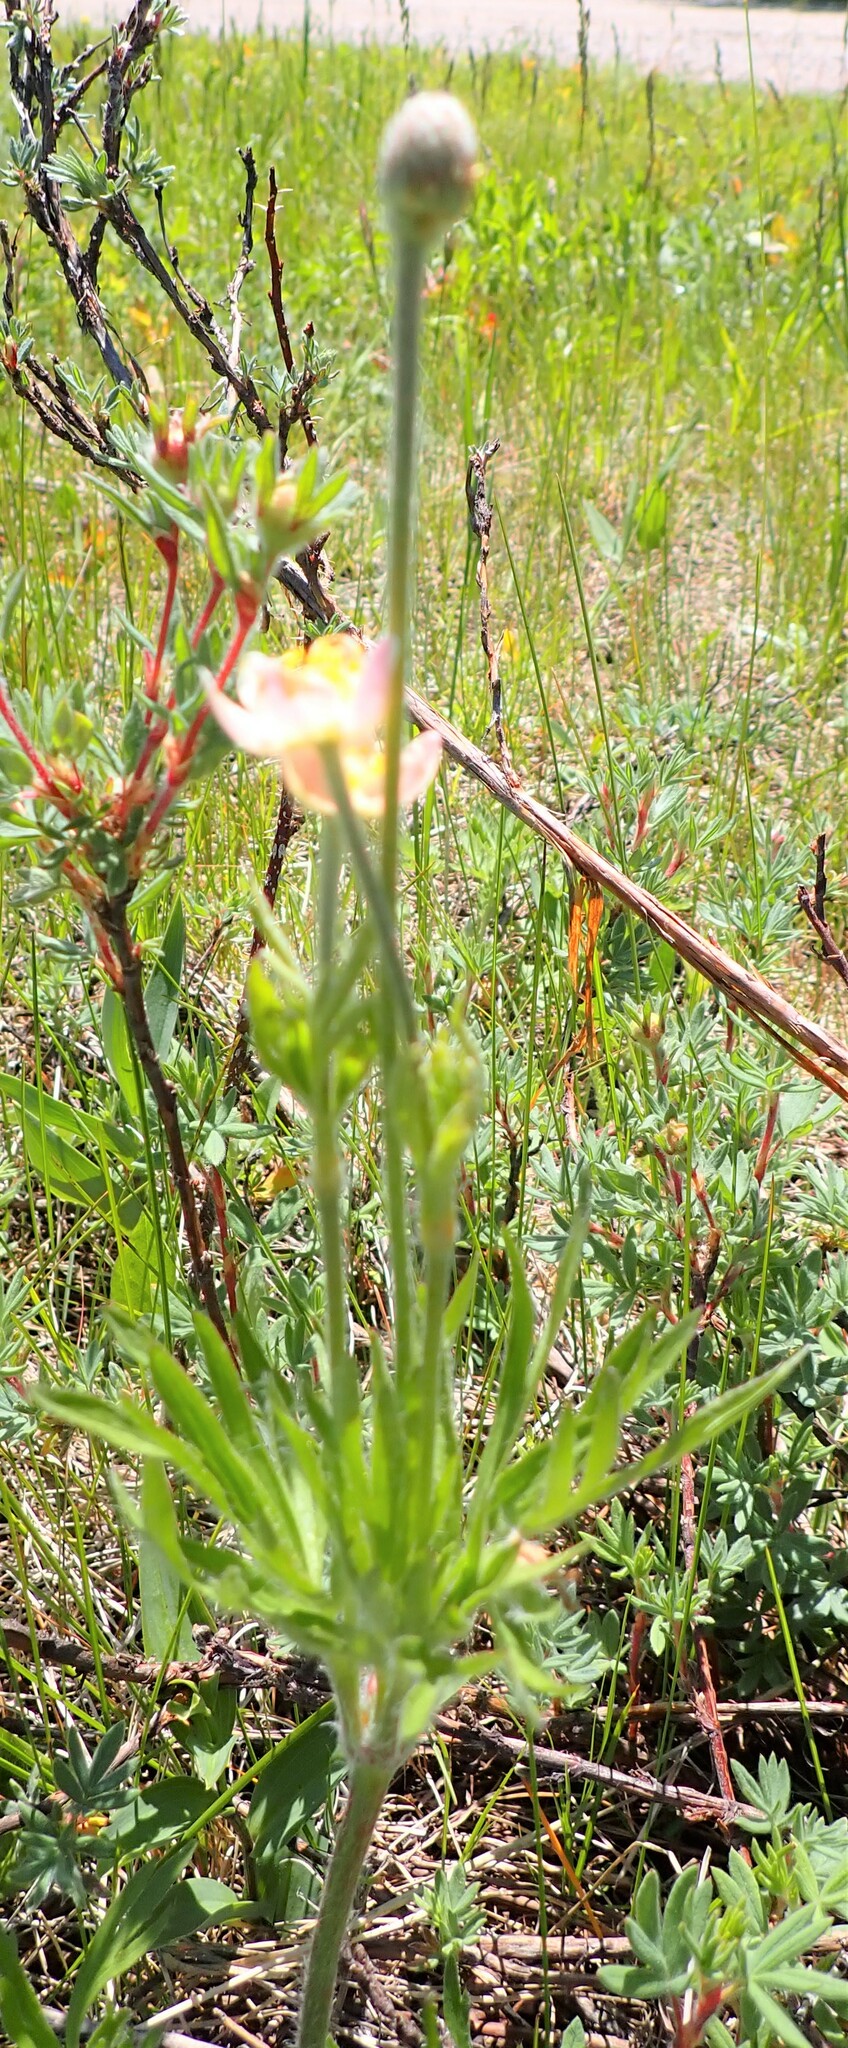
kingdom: Plantae
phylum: Tracheophyta
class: Magnoliopsida
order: Ranunculales
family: Ranunculaceae
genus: Anemone
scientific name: Anemone multifida
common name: Bird's-foot anemone
